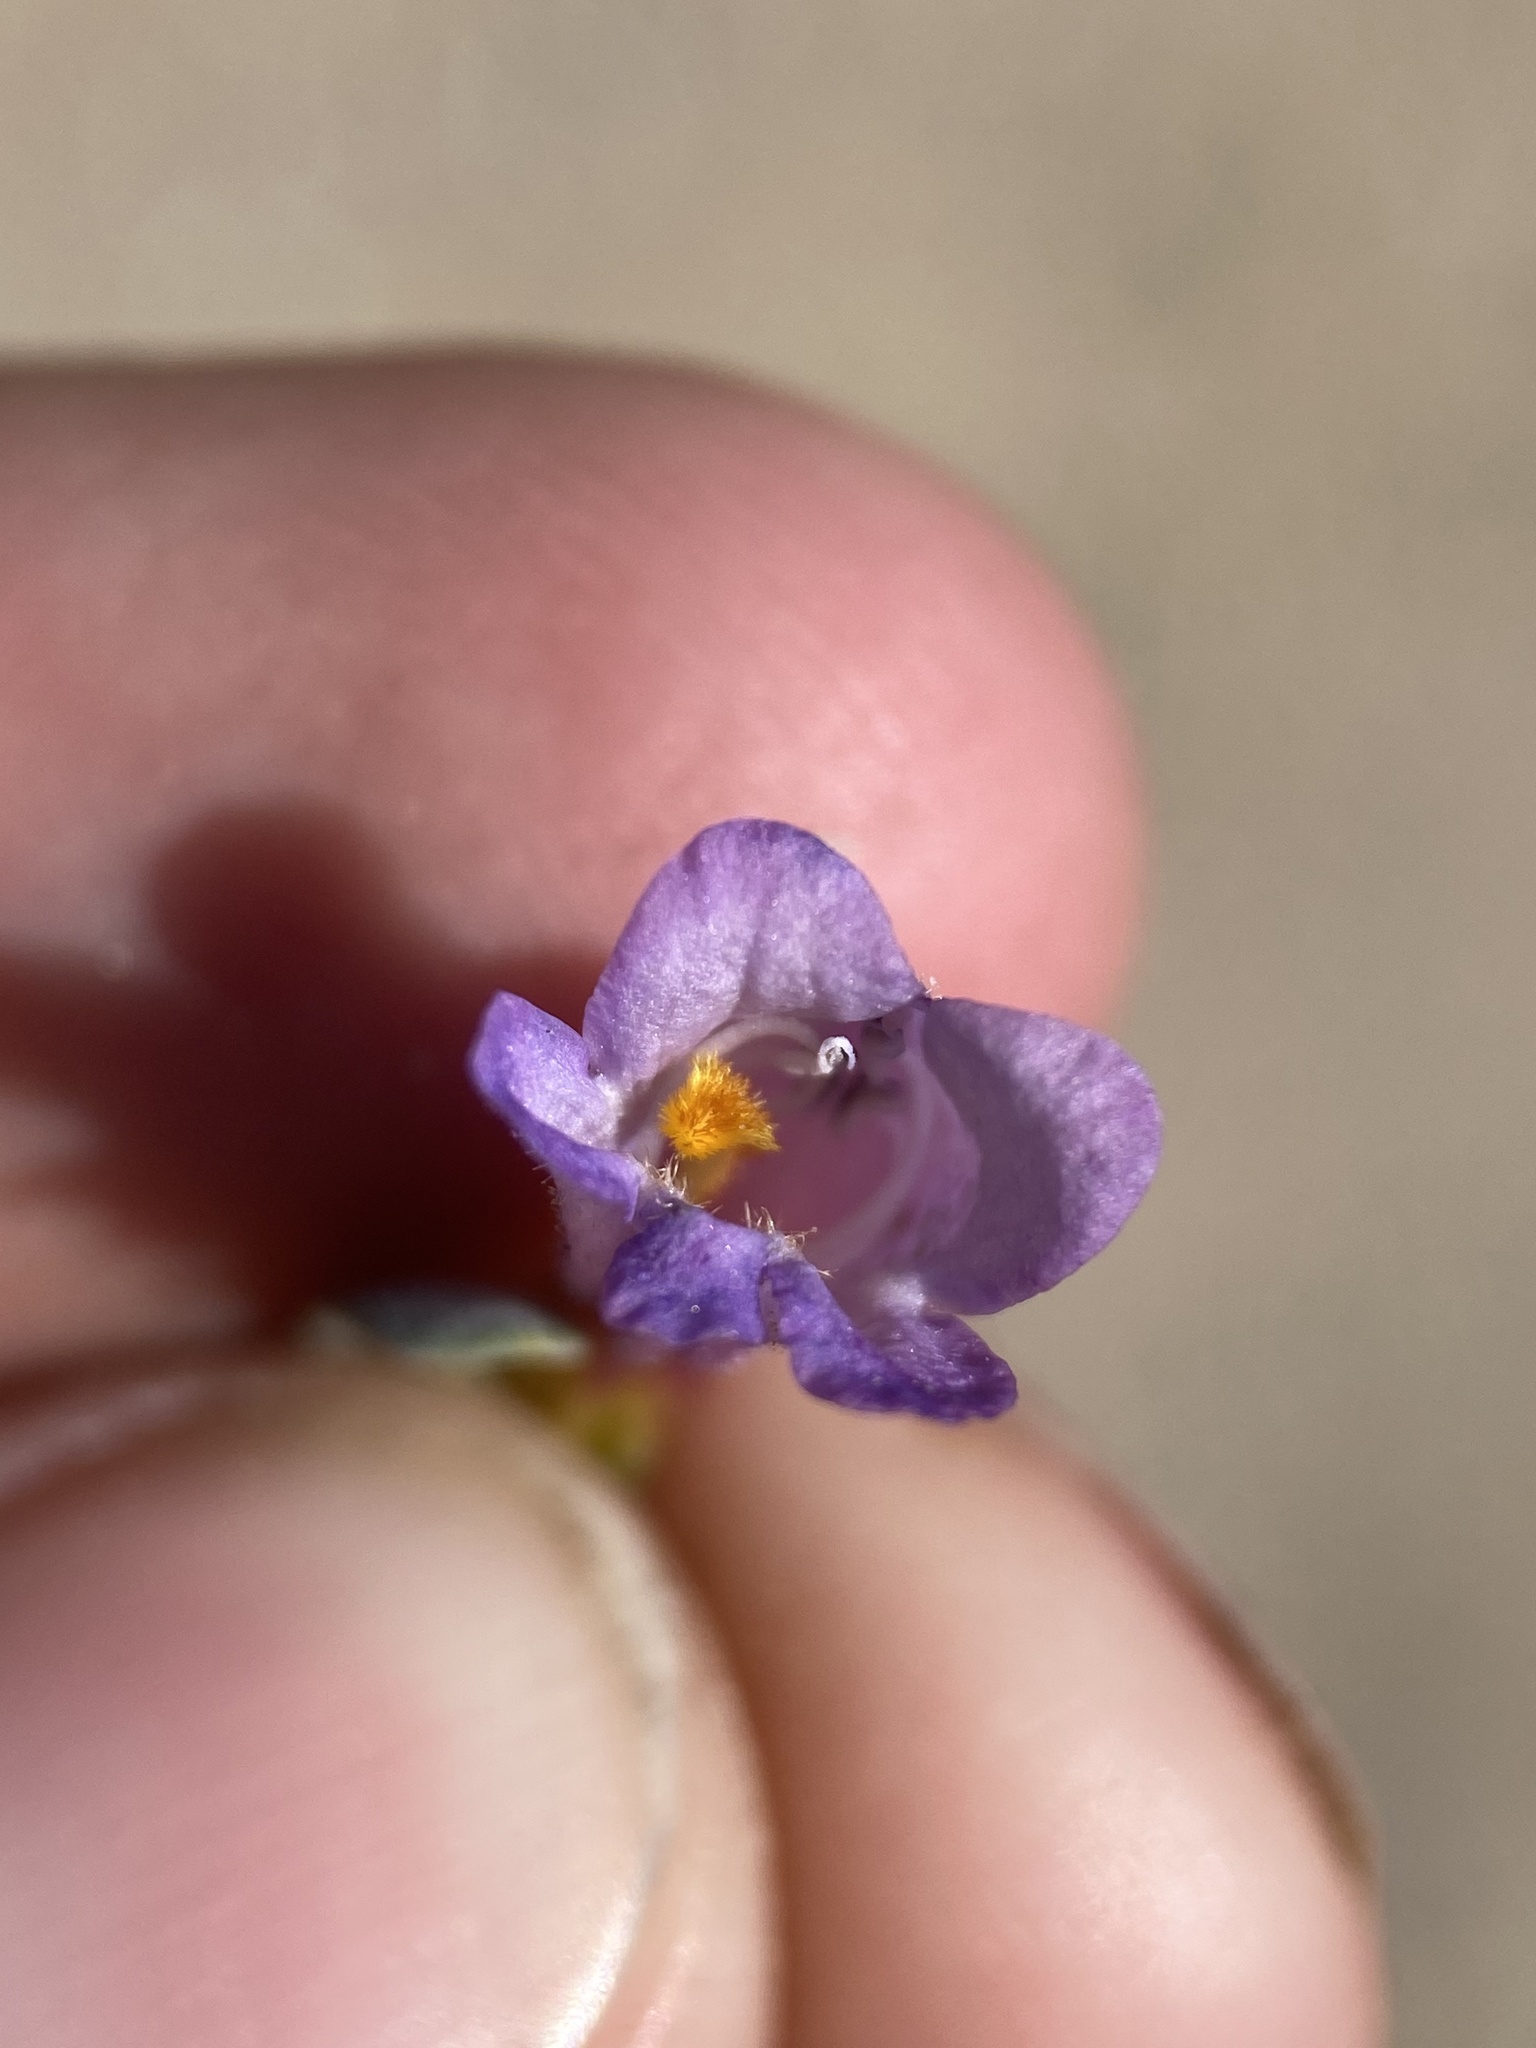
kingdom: Plantae
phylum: Tracheophyta
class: Magnoliopsida
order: Lamiales
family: Plantaginaceae
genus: Penstemon
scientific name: Penstemon thompsoniae
